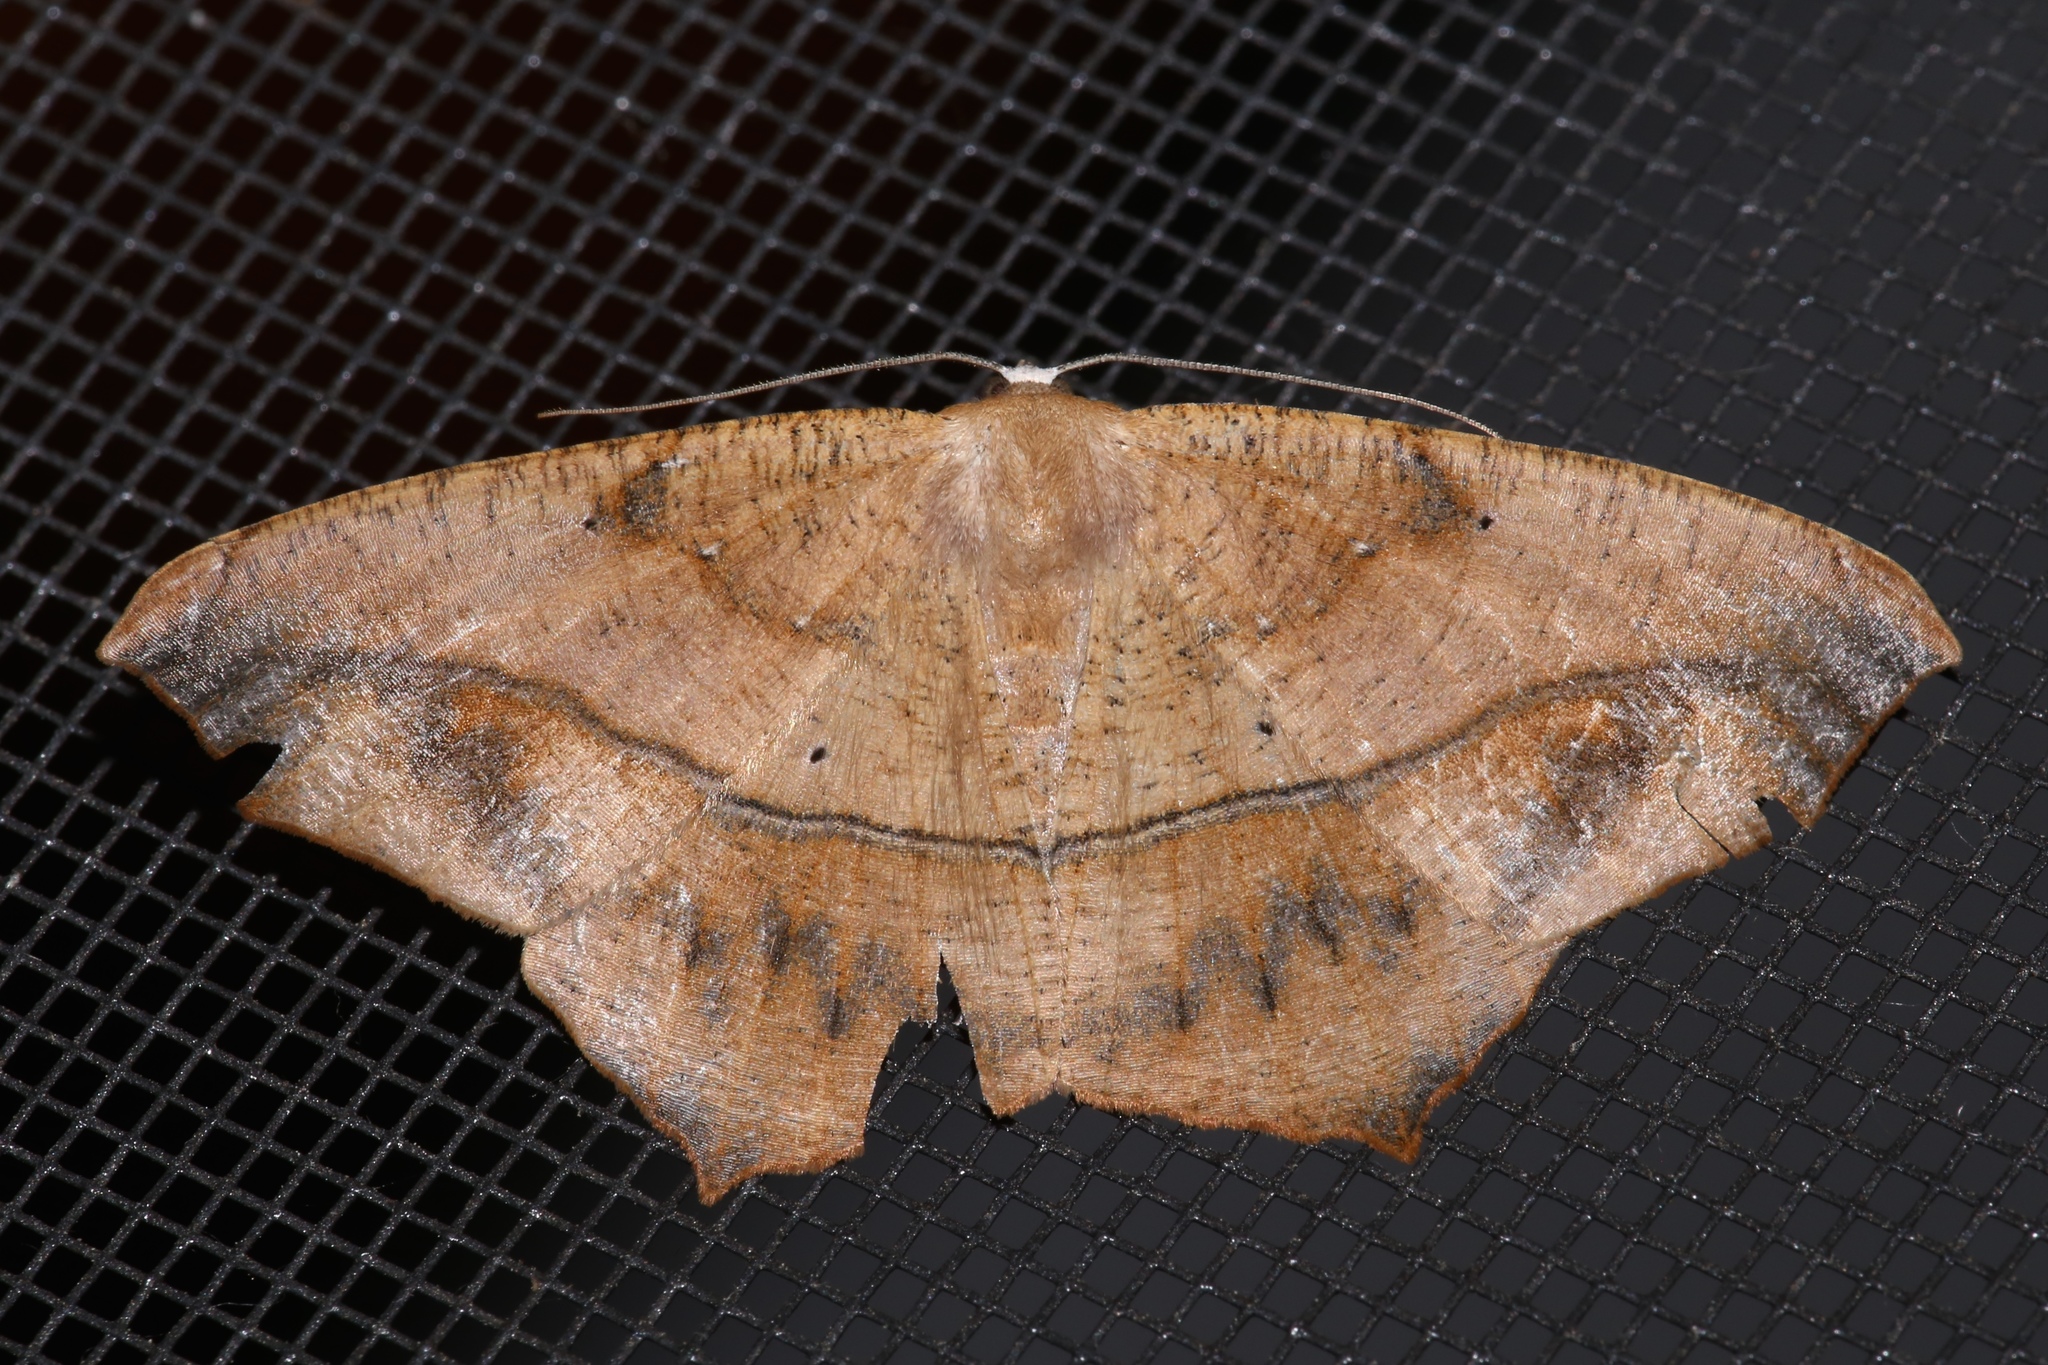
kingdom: Animalia
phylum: Arthropoda
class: Insecta
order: Lepidoptera
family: Geometridae
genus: Prochoerodes
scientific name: Prochoerodes lineola
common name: Large maple spanworm
